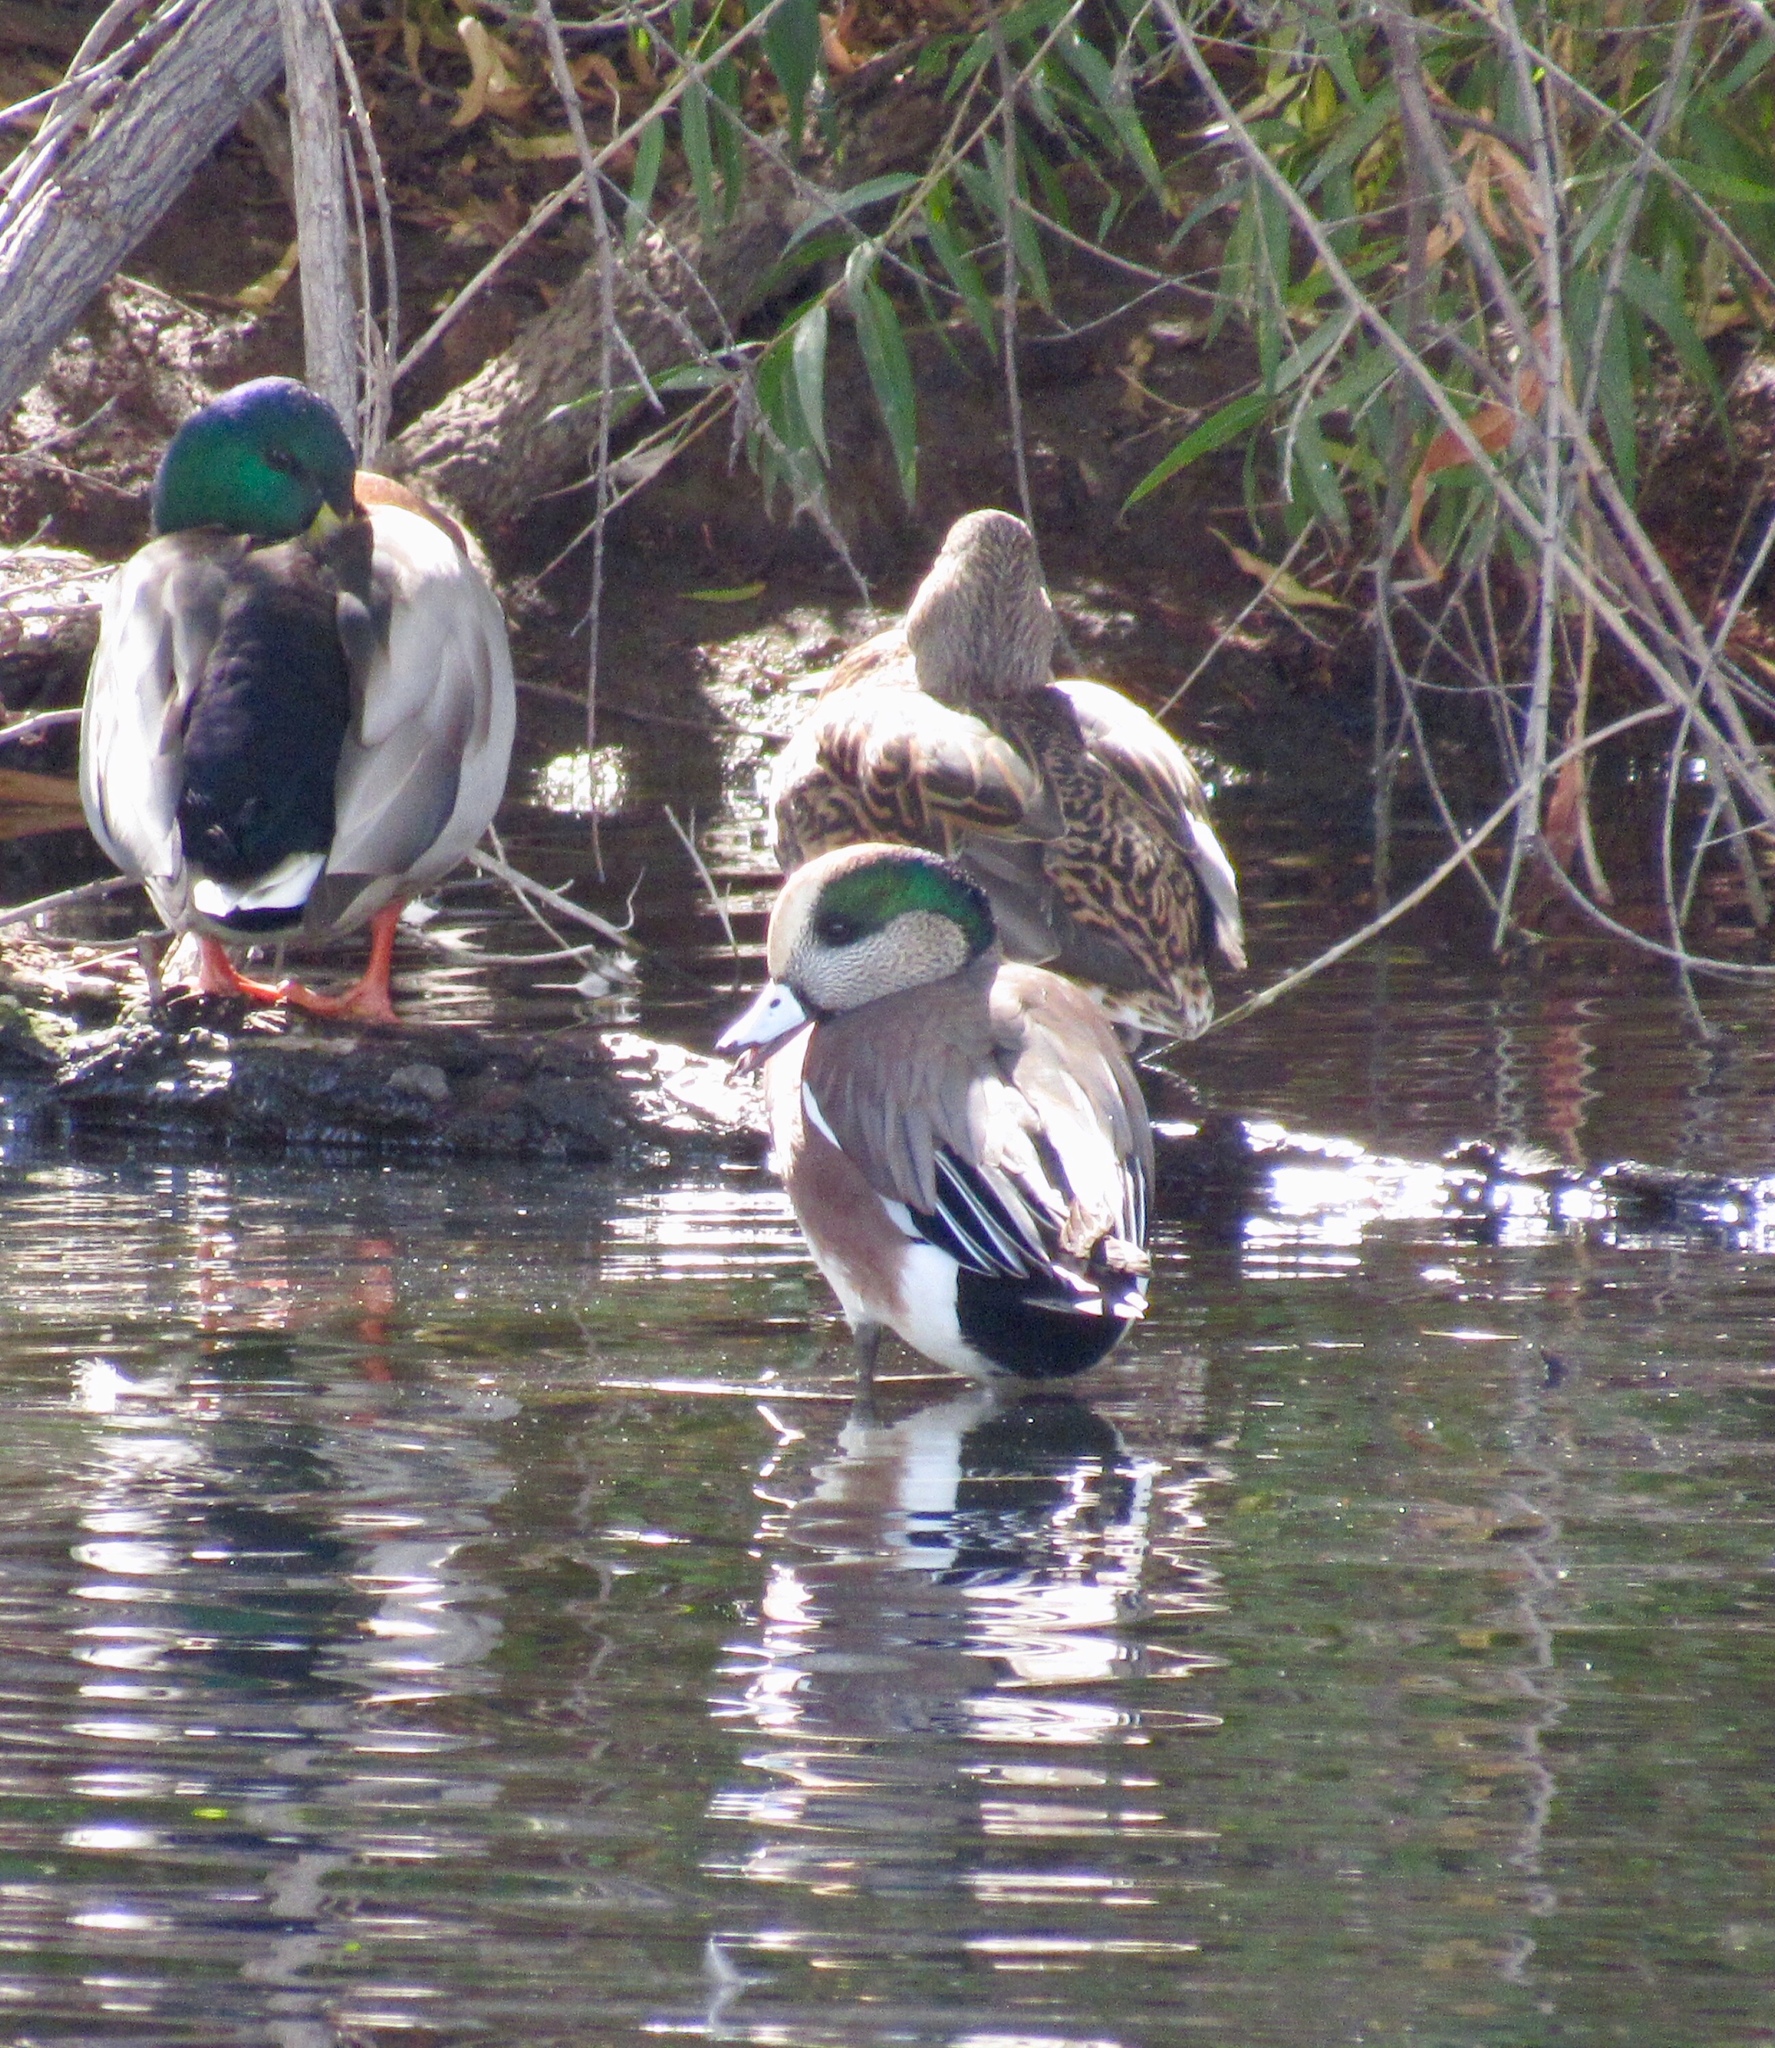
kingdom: Animalia
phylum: Chordata
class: Aves
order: Anseriformes
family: Anatidae
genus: Mareca
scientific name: Mareca americana
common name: American wigeon
